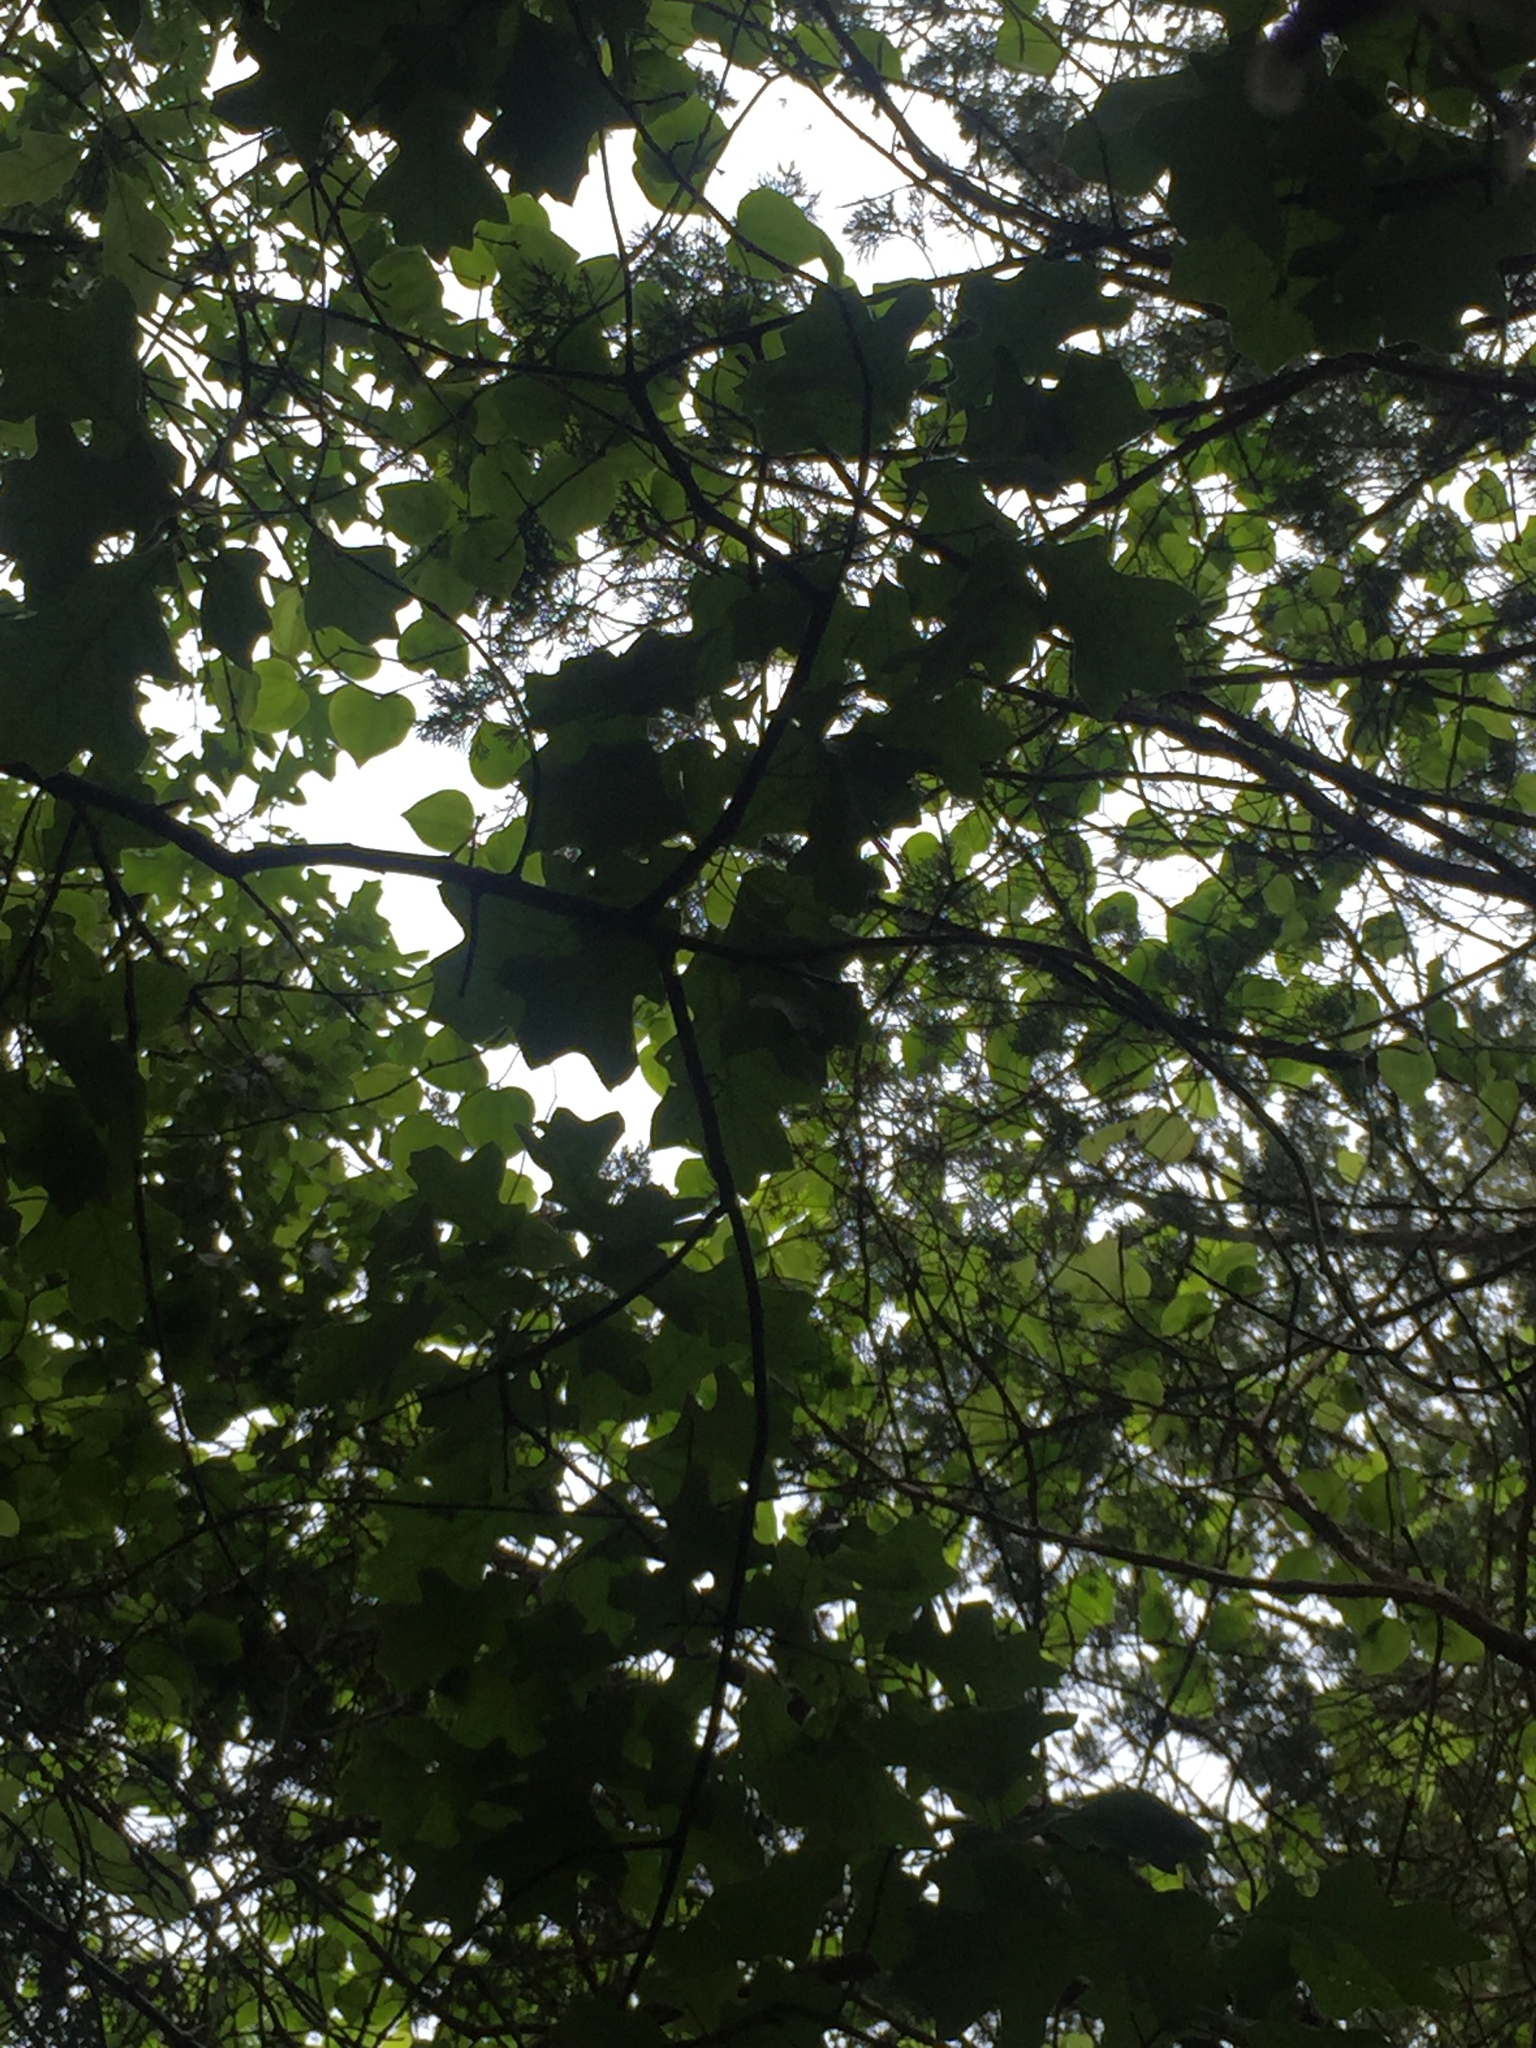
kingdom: Plantae
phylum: Tracheophyta
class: Magnoliopsida
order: Fagales
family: Fagaceae
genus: Quercus
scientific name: Quercus ilicifolia
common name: Bear oak
